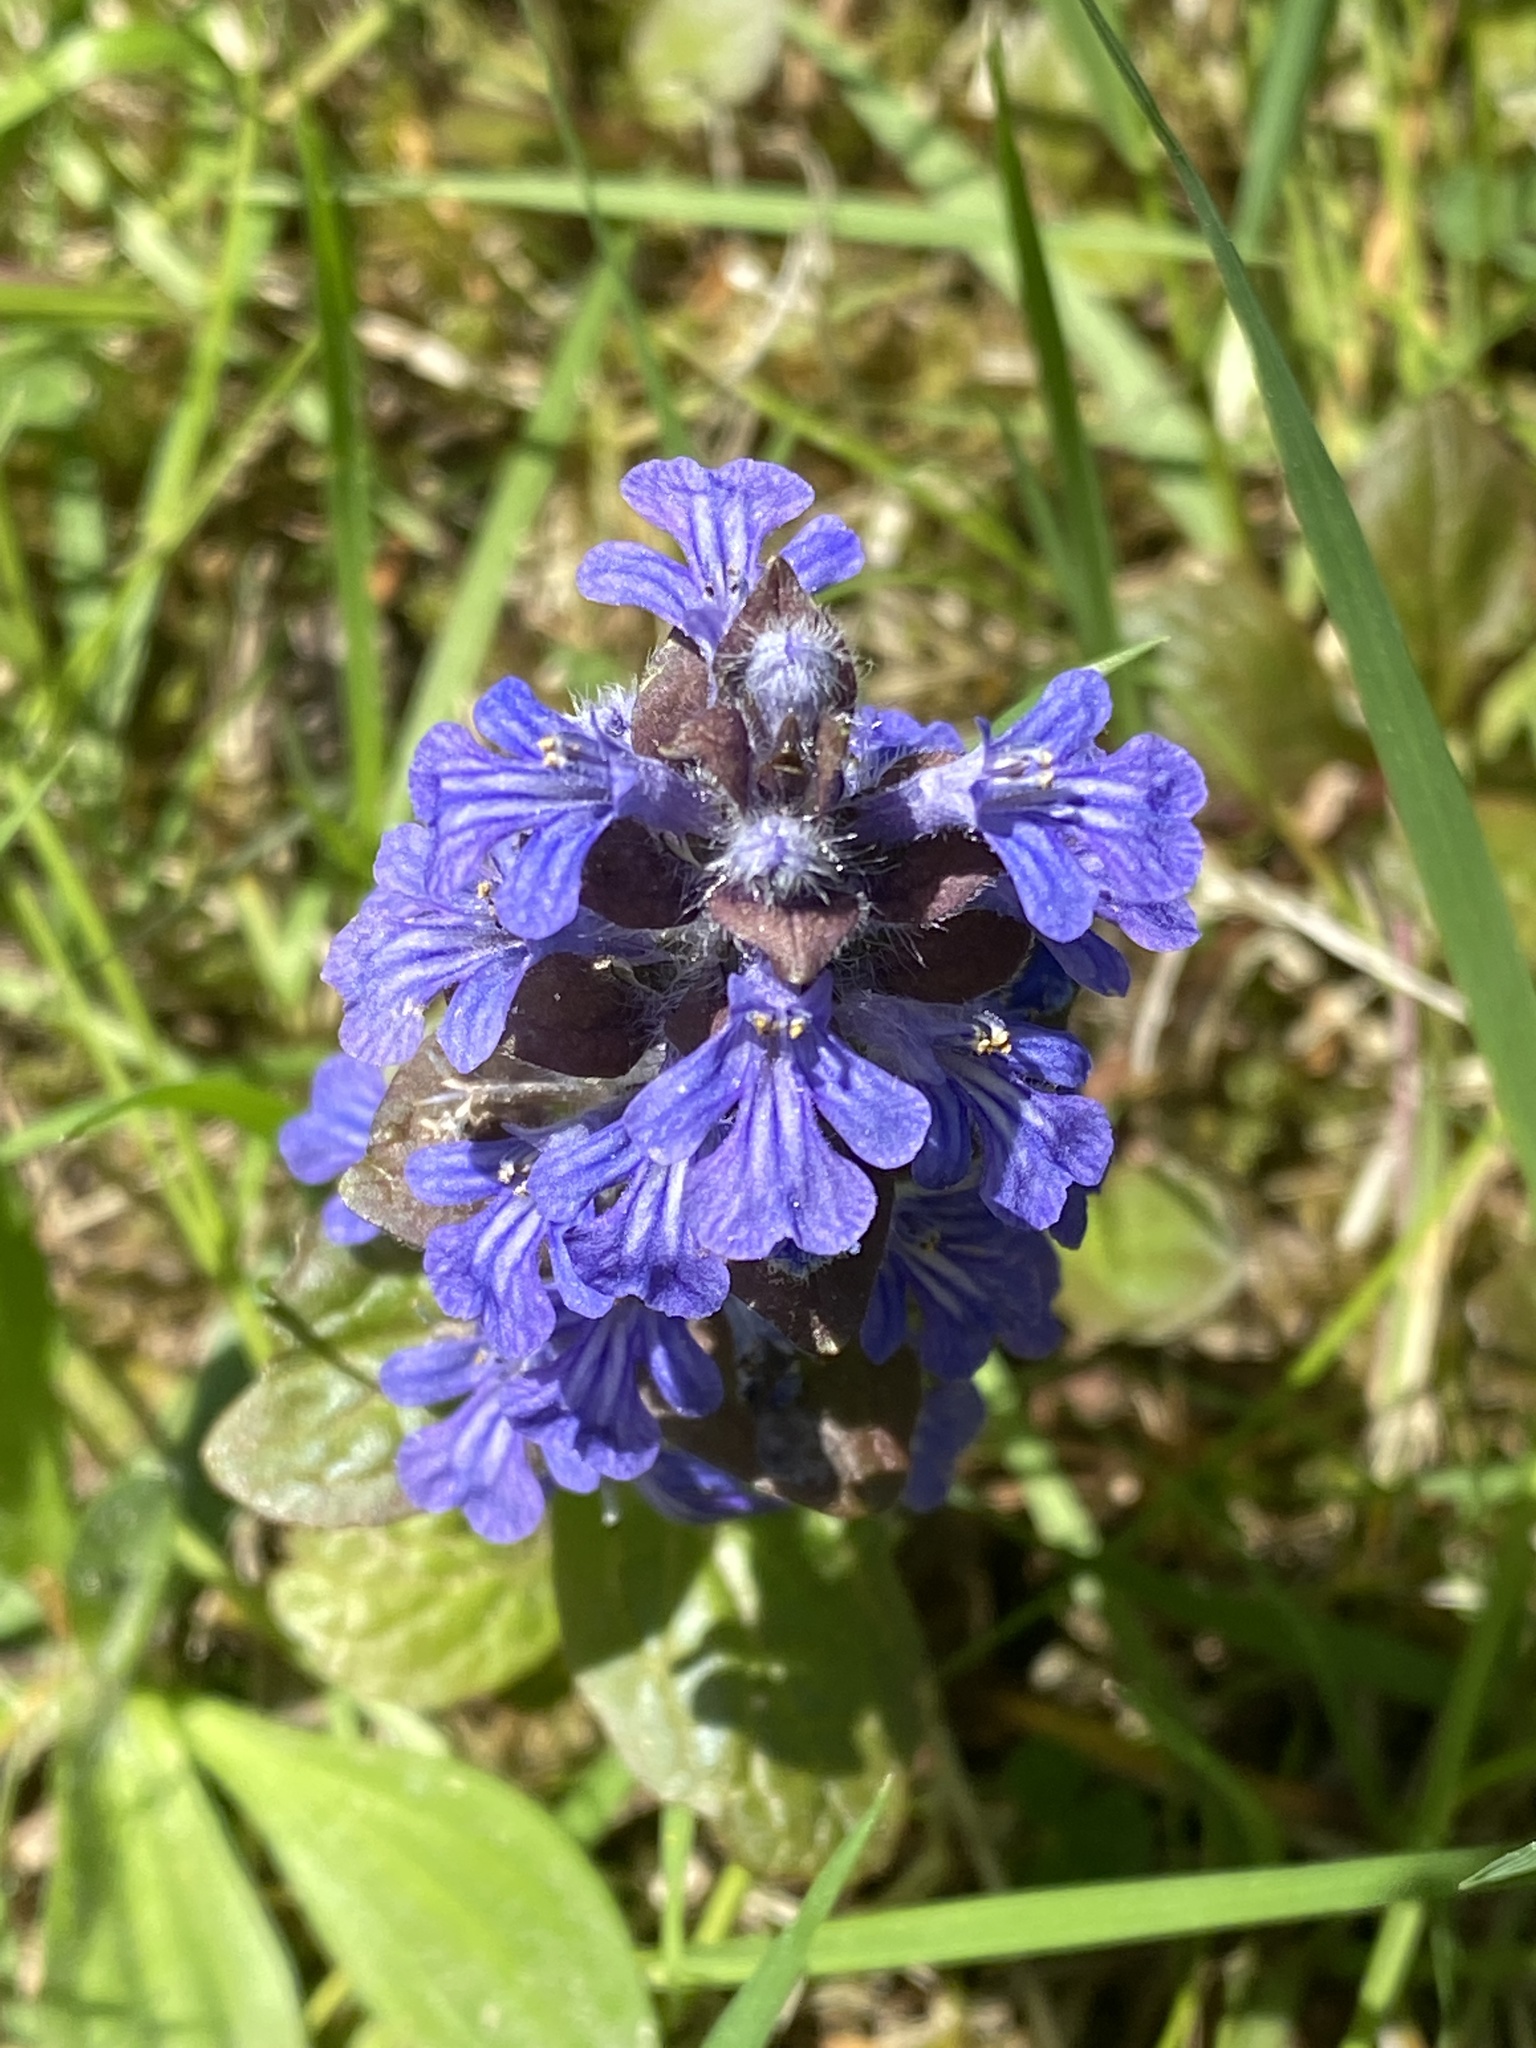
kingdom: Plantae
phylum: Tracheophyta
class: Magnoliopsida
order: Lamiales
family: Lamiaceae
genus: Ajuga
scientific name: Ajuga reptans
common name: Bugle
